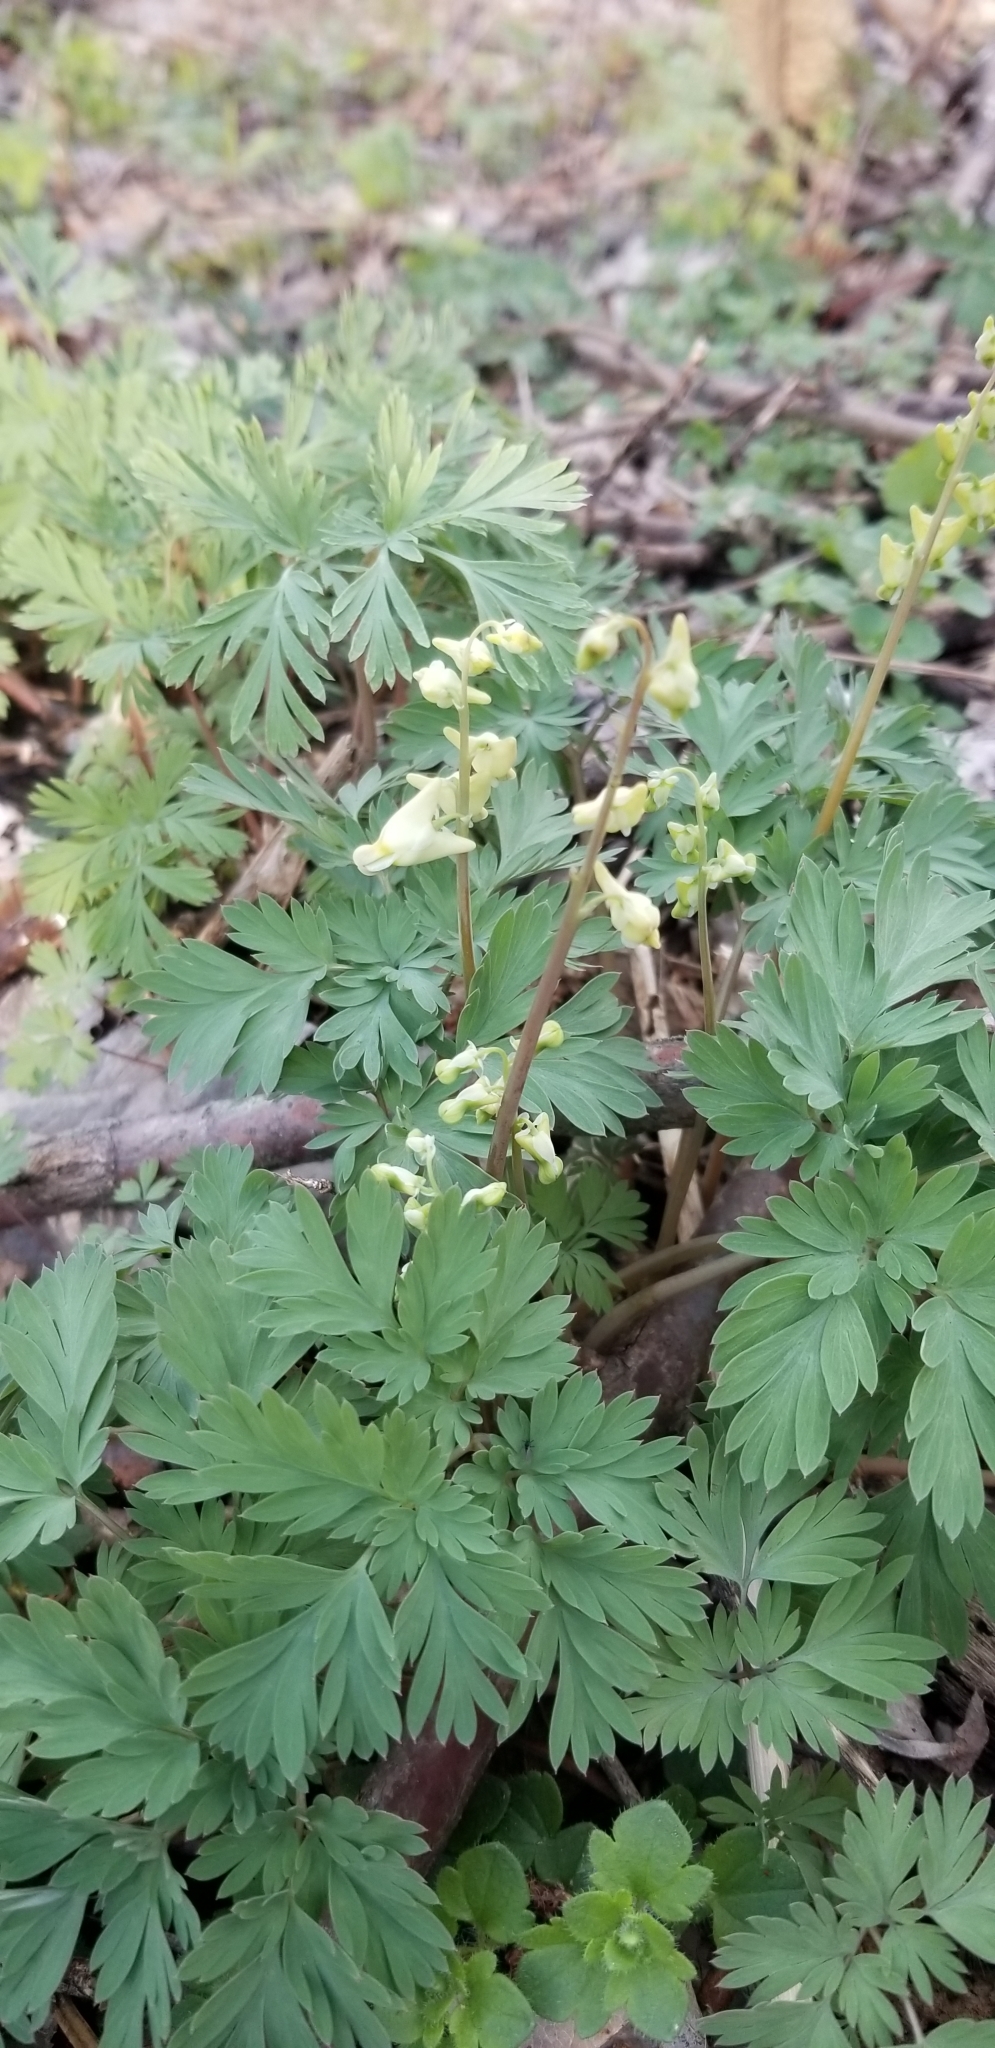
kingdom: Plantae
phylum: Tracheophyta
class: Magnoliopsida
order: Ranunculales
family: Papaveraceae
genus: Dicentra
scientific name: Dicentra cucullaria
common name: Dutchman's breeches
